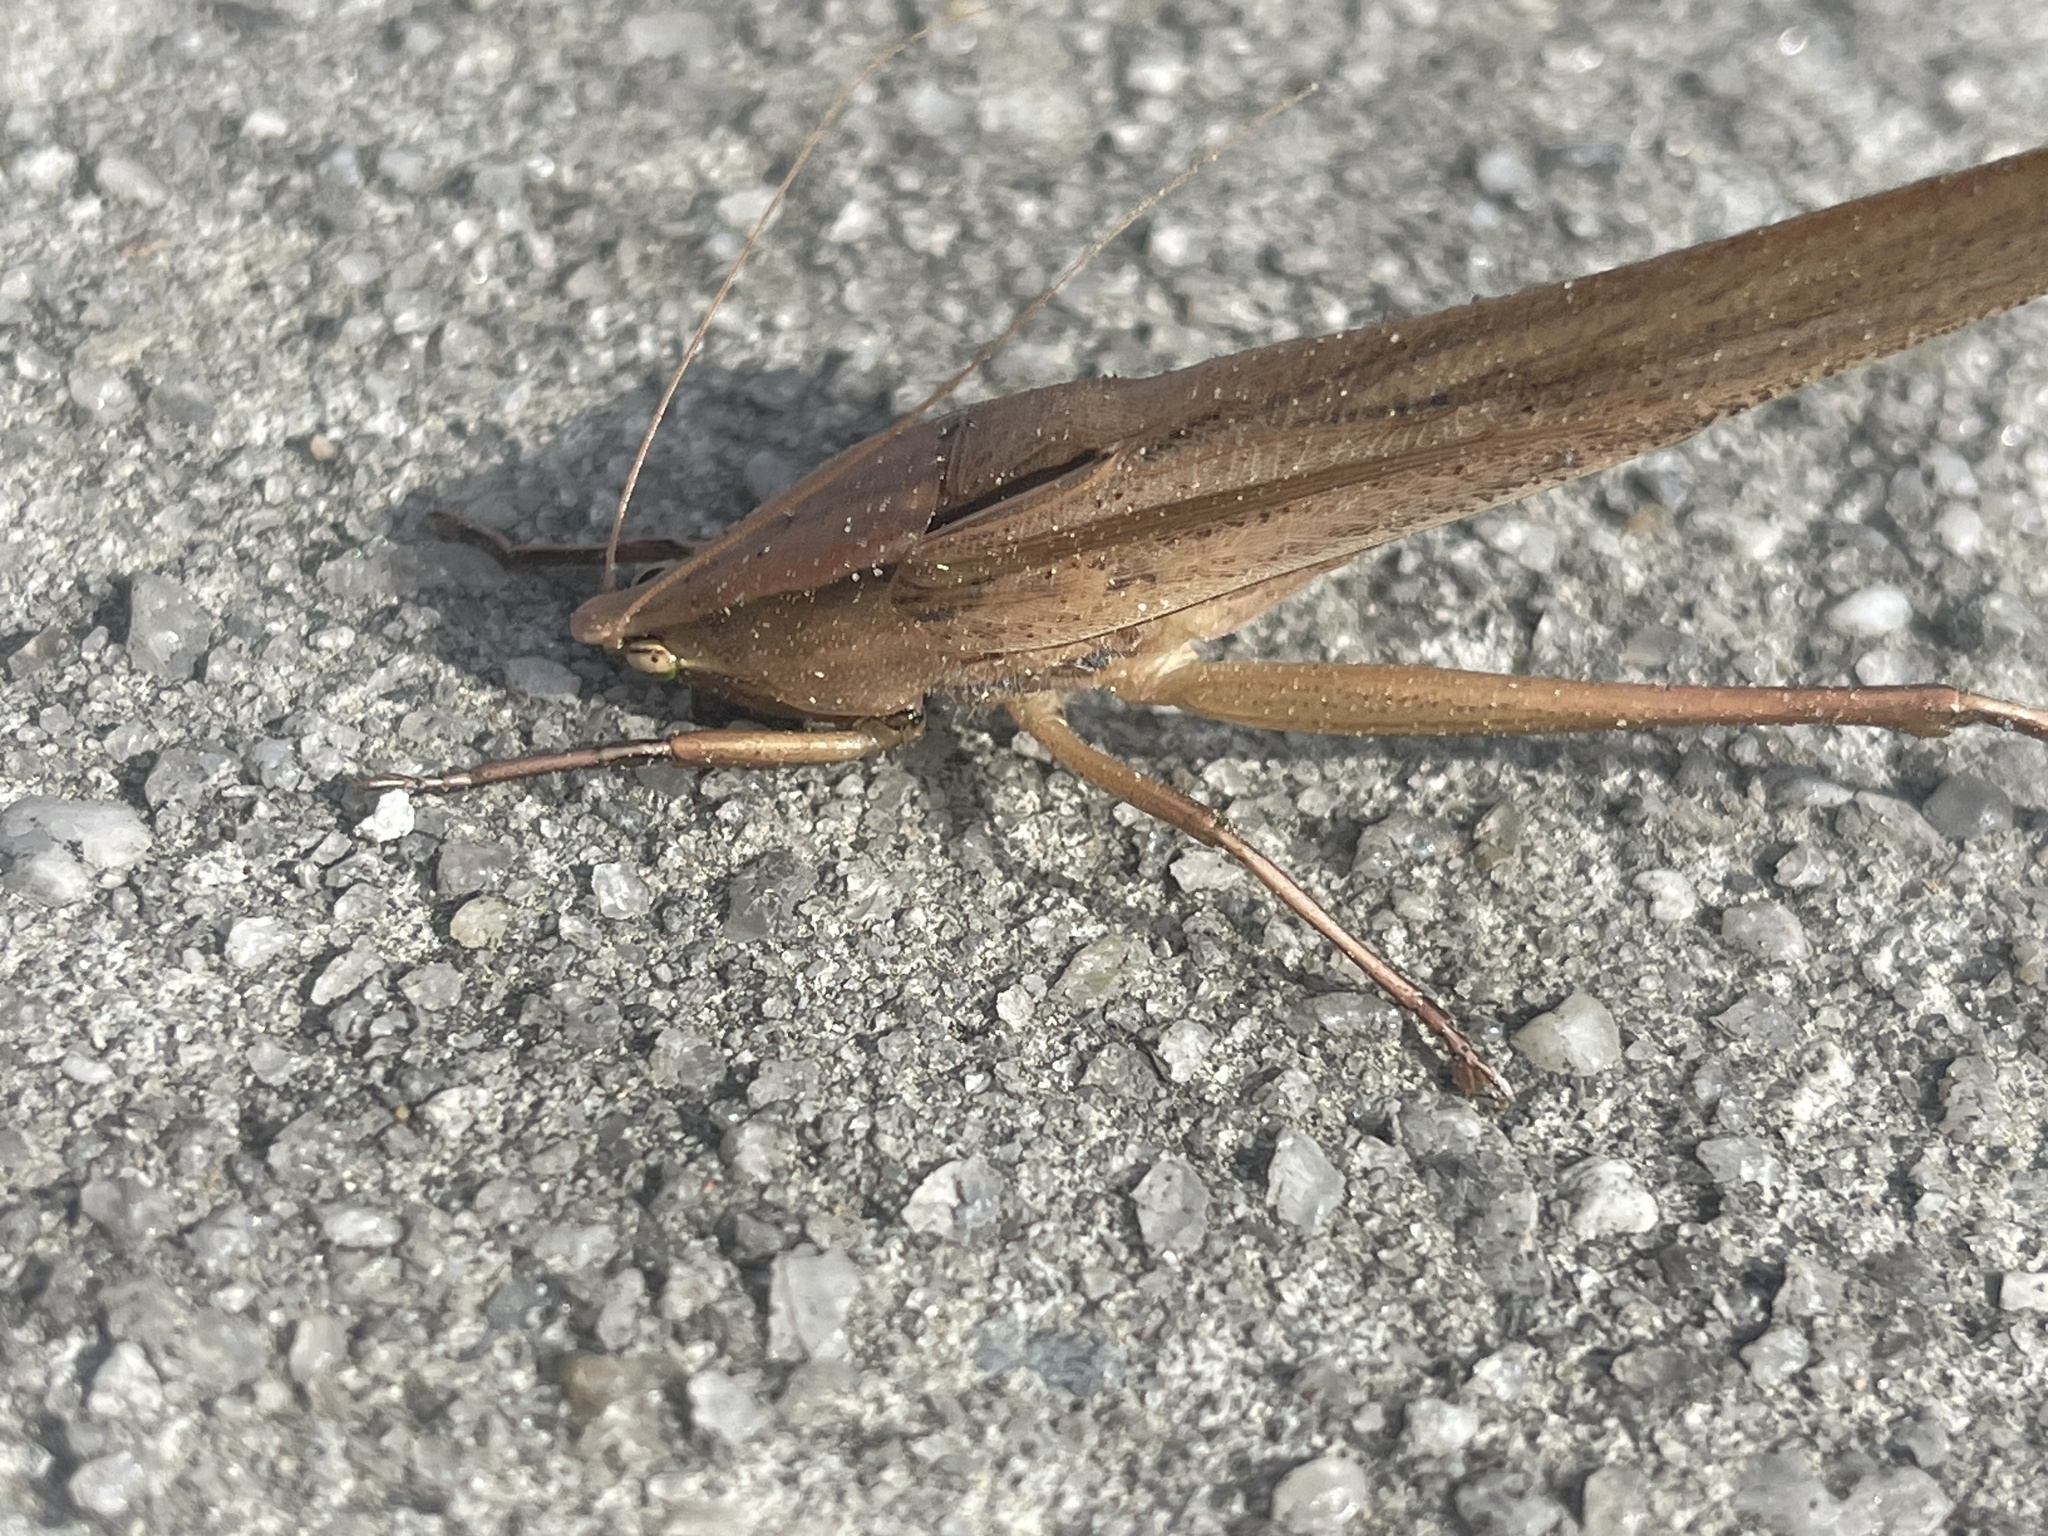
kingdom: Animalia
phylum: Arthropoda
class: Insecta
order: Orthoptera
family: Tettigoniidae
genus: Neoconocephalus
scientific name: Neoconocephalus triops
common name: Broad-tipped conehead
